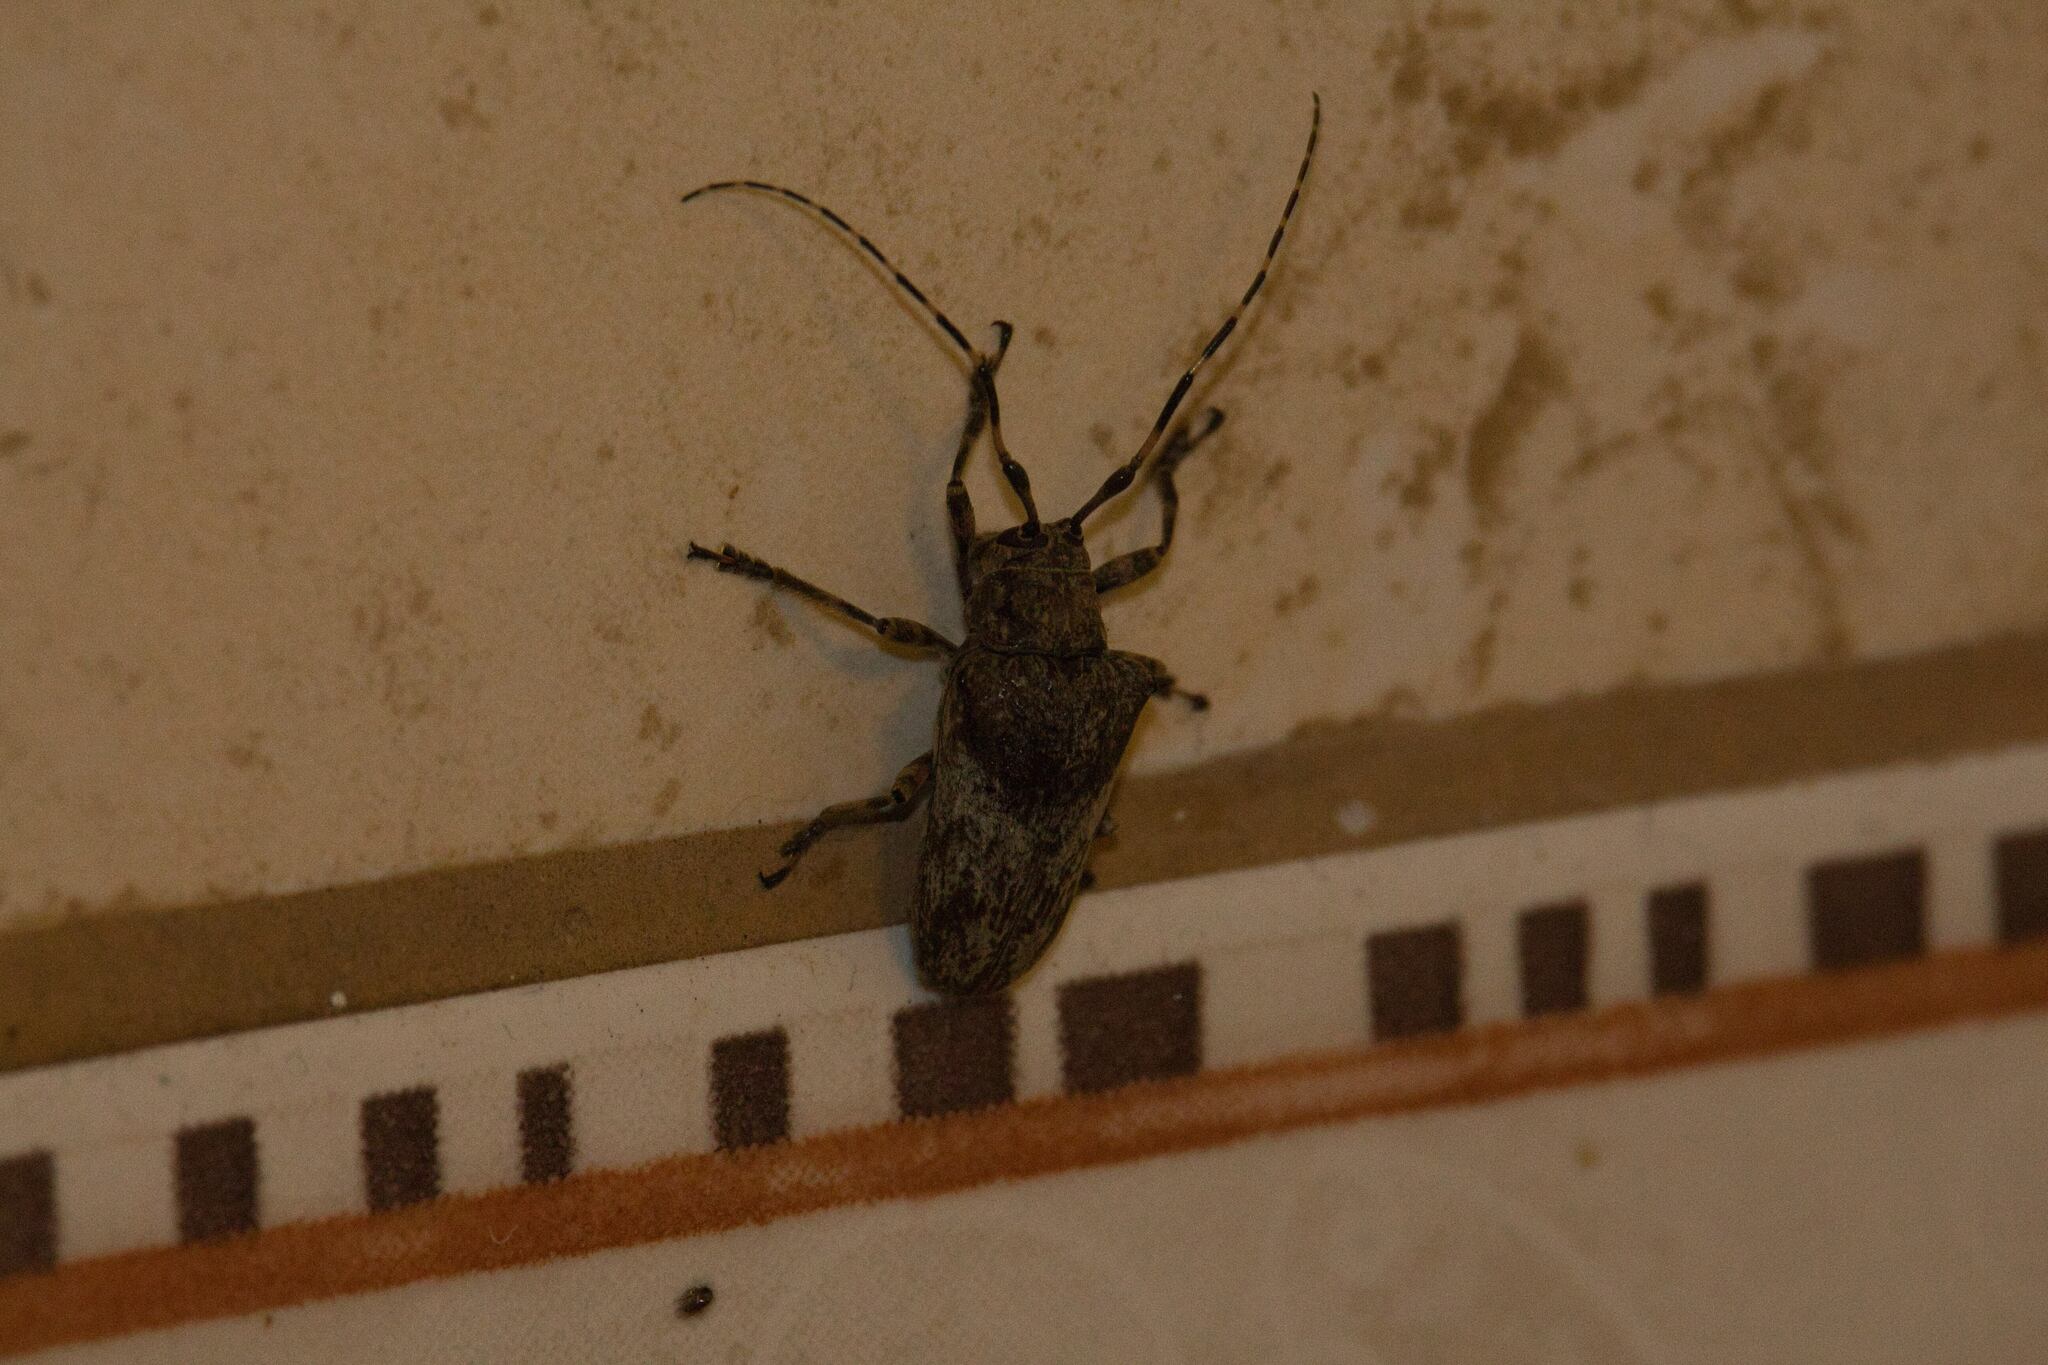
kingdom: Animalia
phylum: Arthropoda
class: Insecta
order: Coleoptera
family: Cerambycidae
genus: Tulcus
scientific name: Tulcus lycimnius
